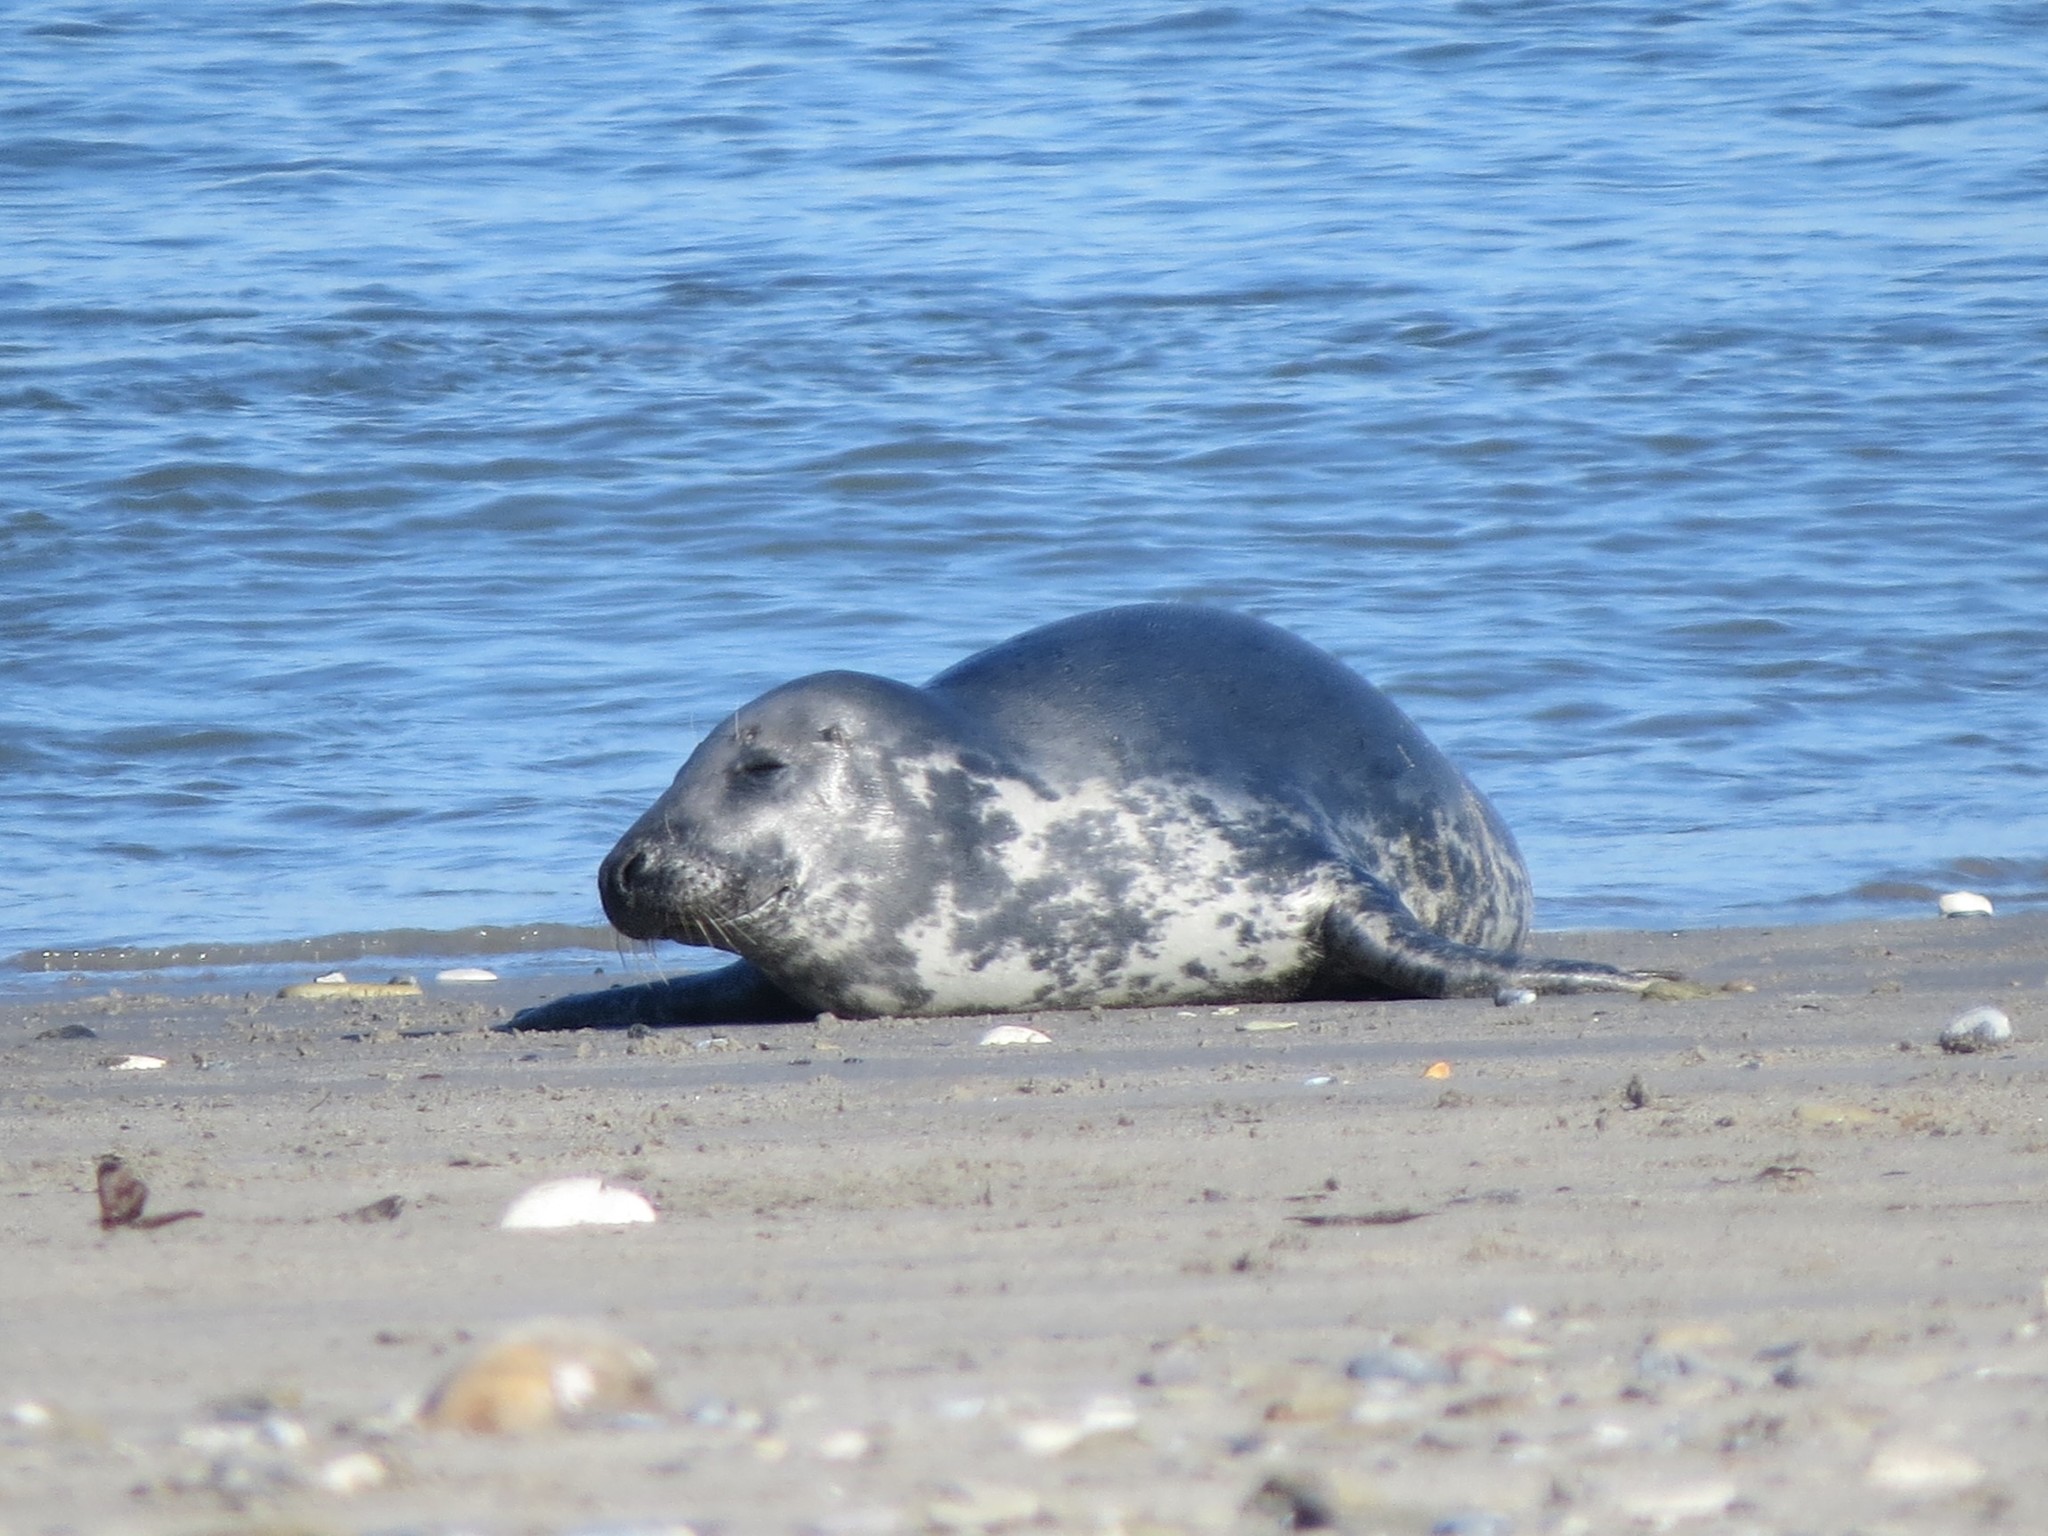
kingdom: Animalia
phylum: Chordata
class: Mammalia
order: Carnivora
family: Phocidae
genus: Halichoerus
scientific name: Halichoerus grypus
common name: Grey seal
